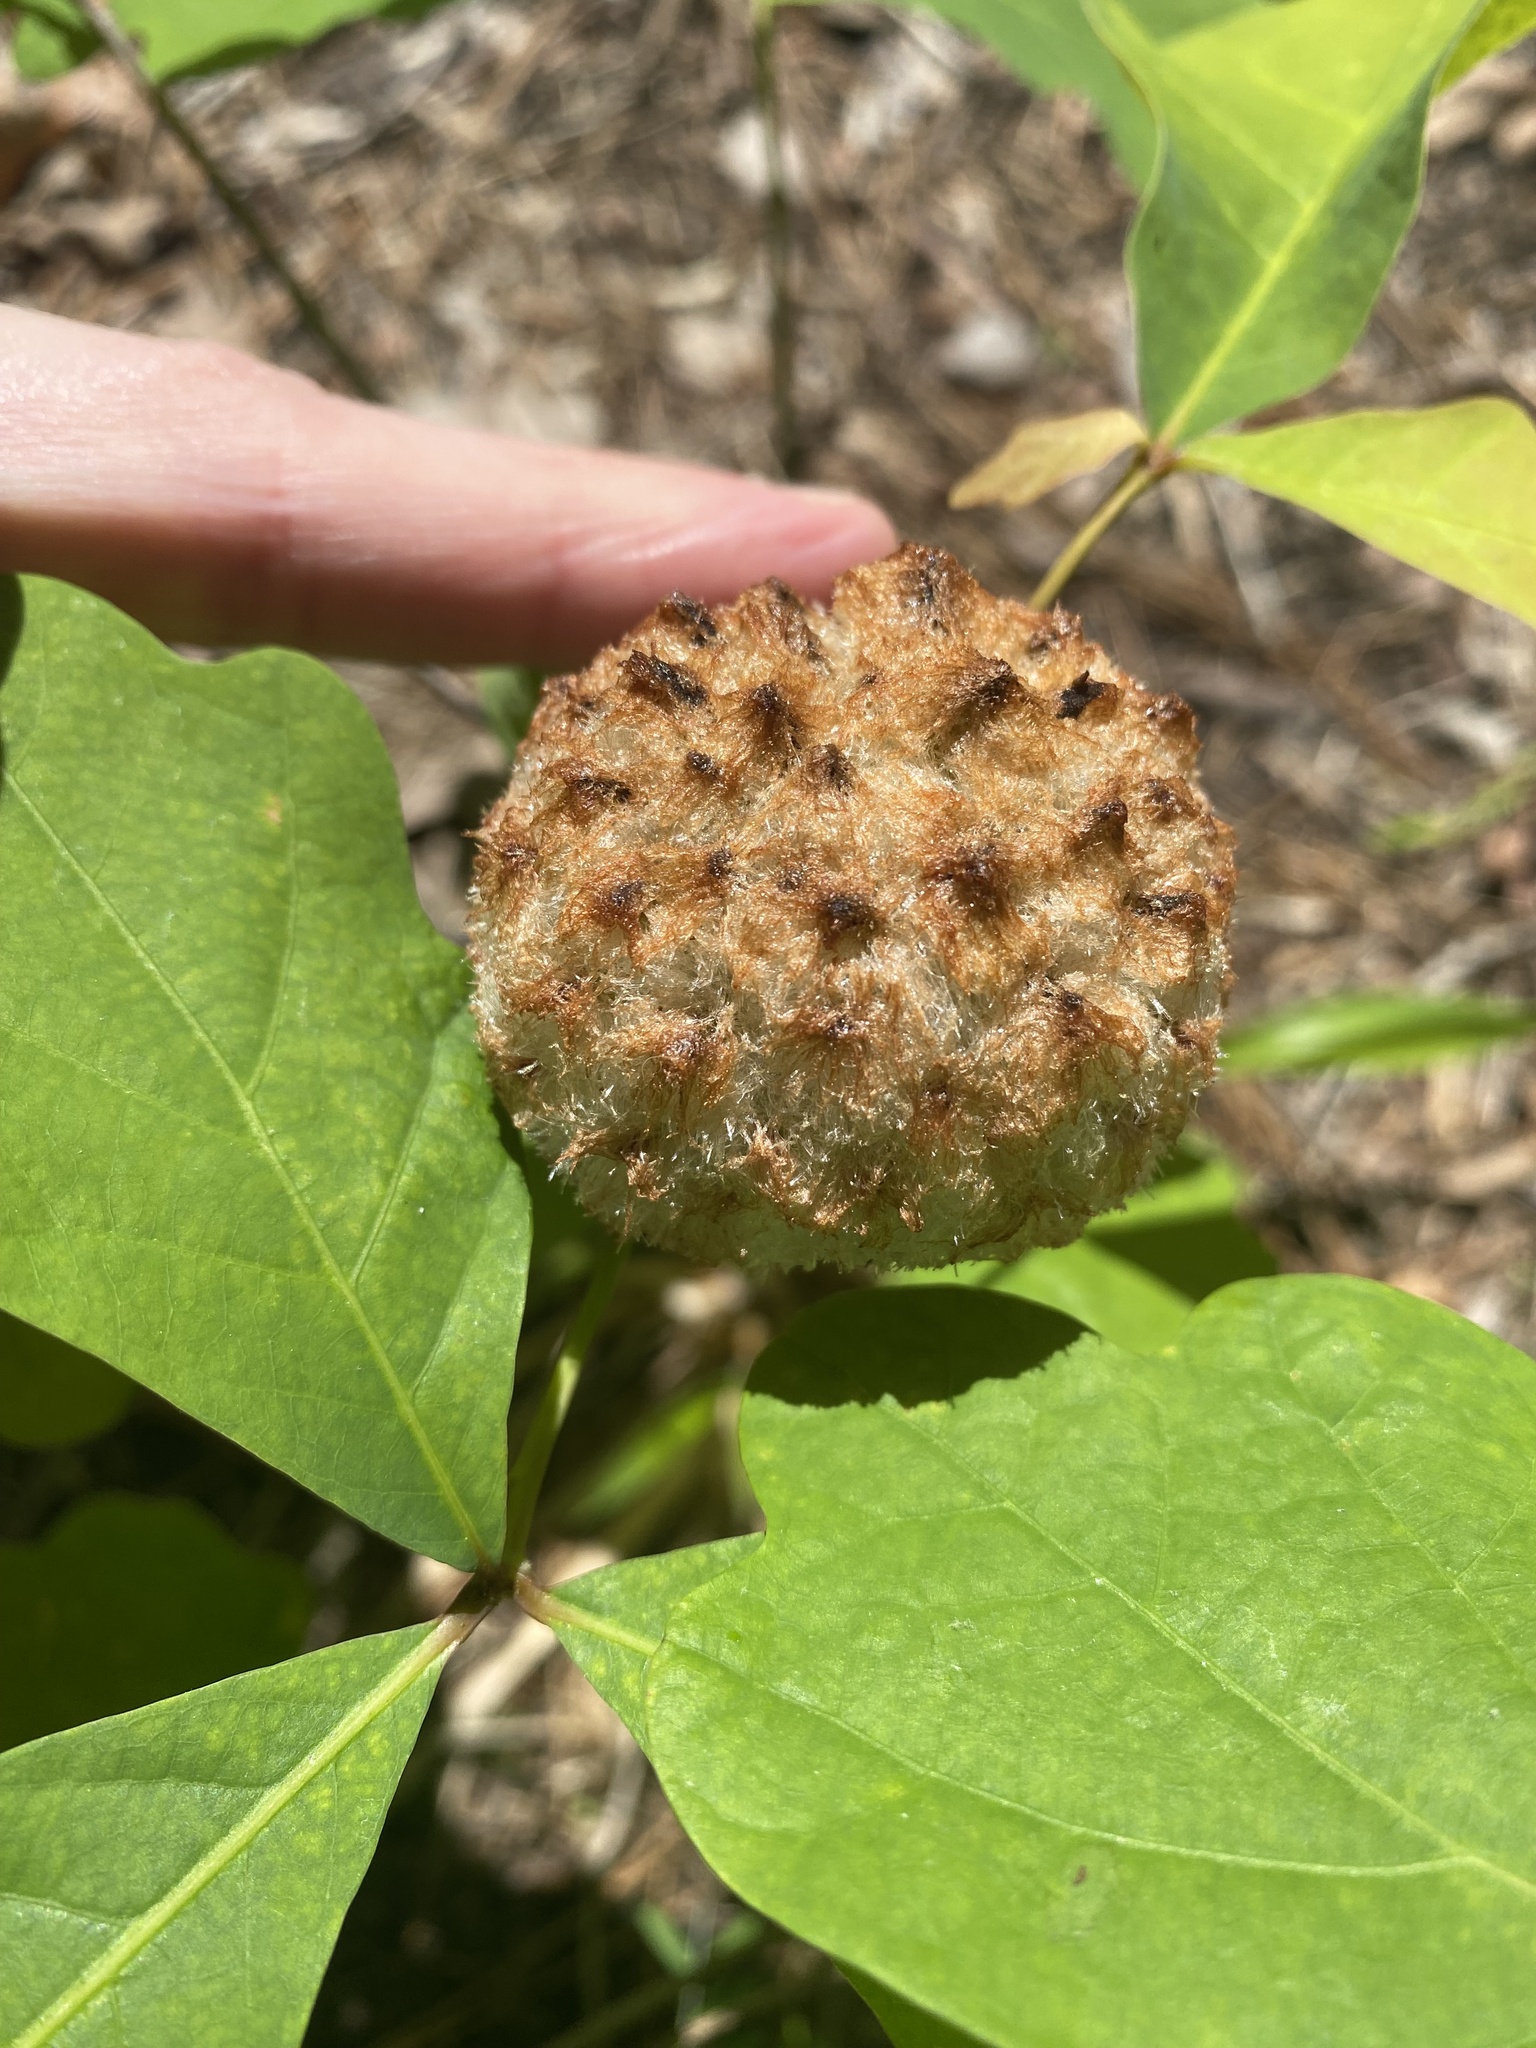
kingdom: Animalia
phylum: Arthropoda
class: Insecta
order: Hymenoptera
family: Cynipidae
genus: Callirhytis
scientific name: Callirhytis
